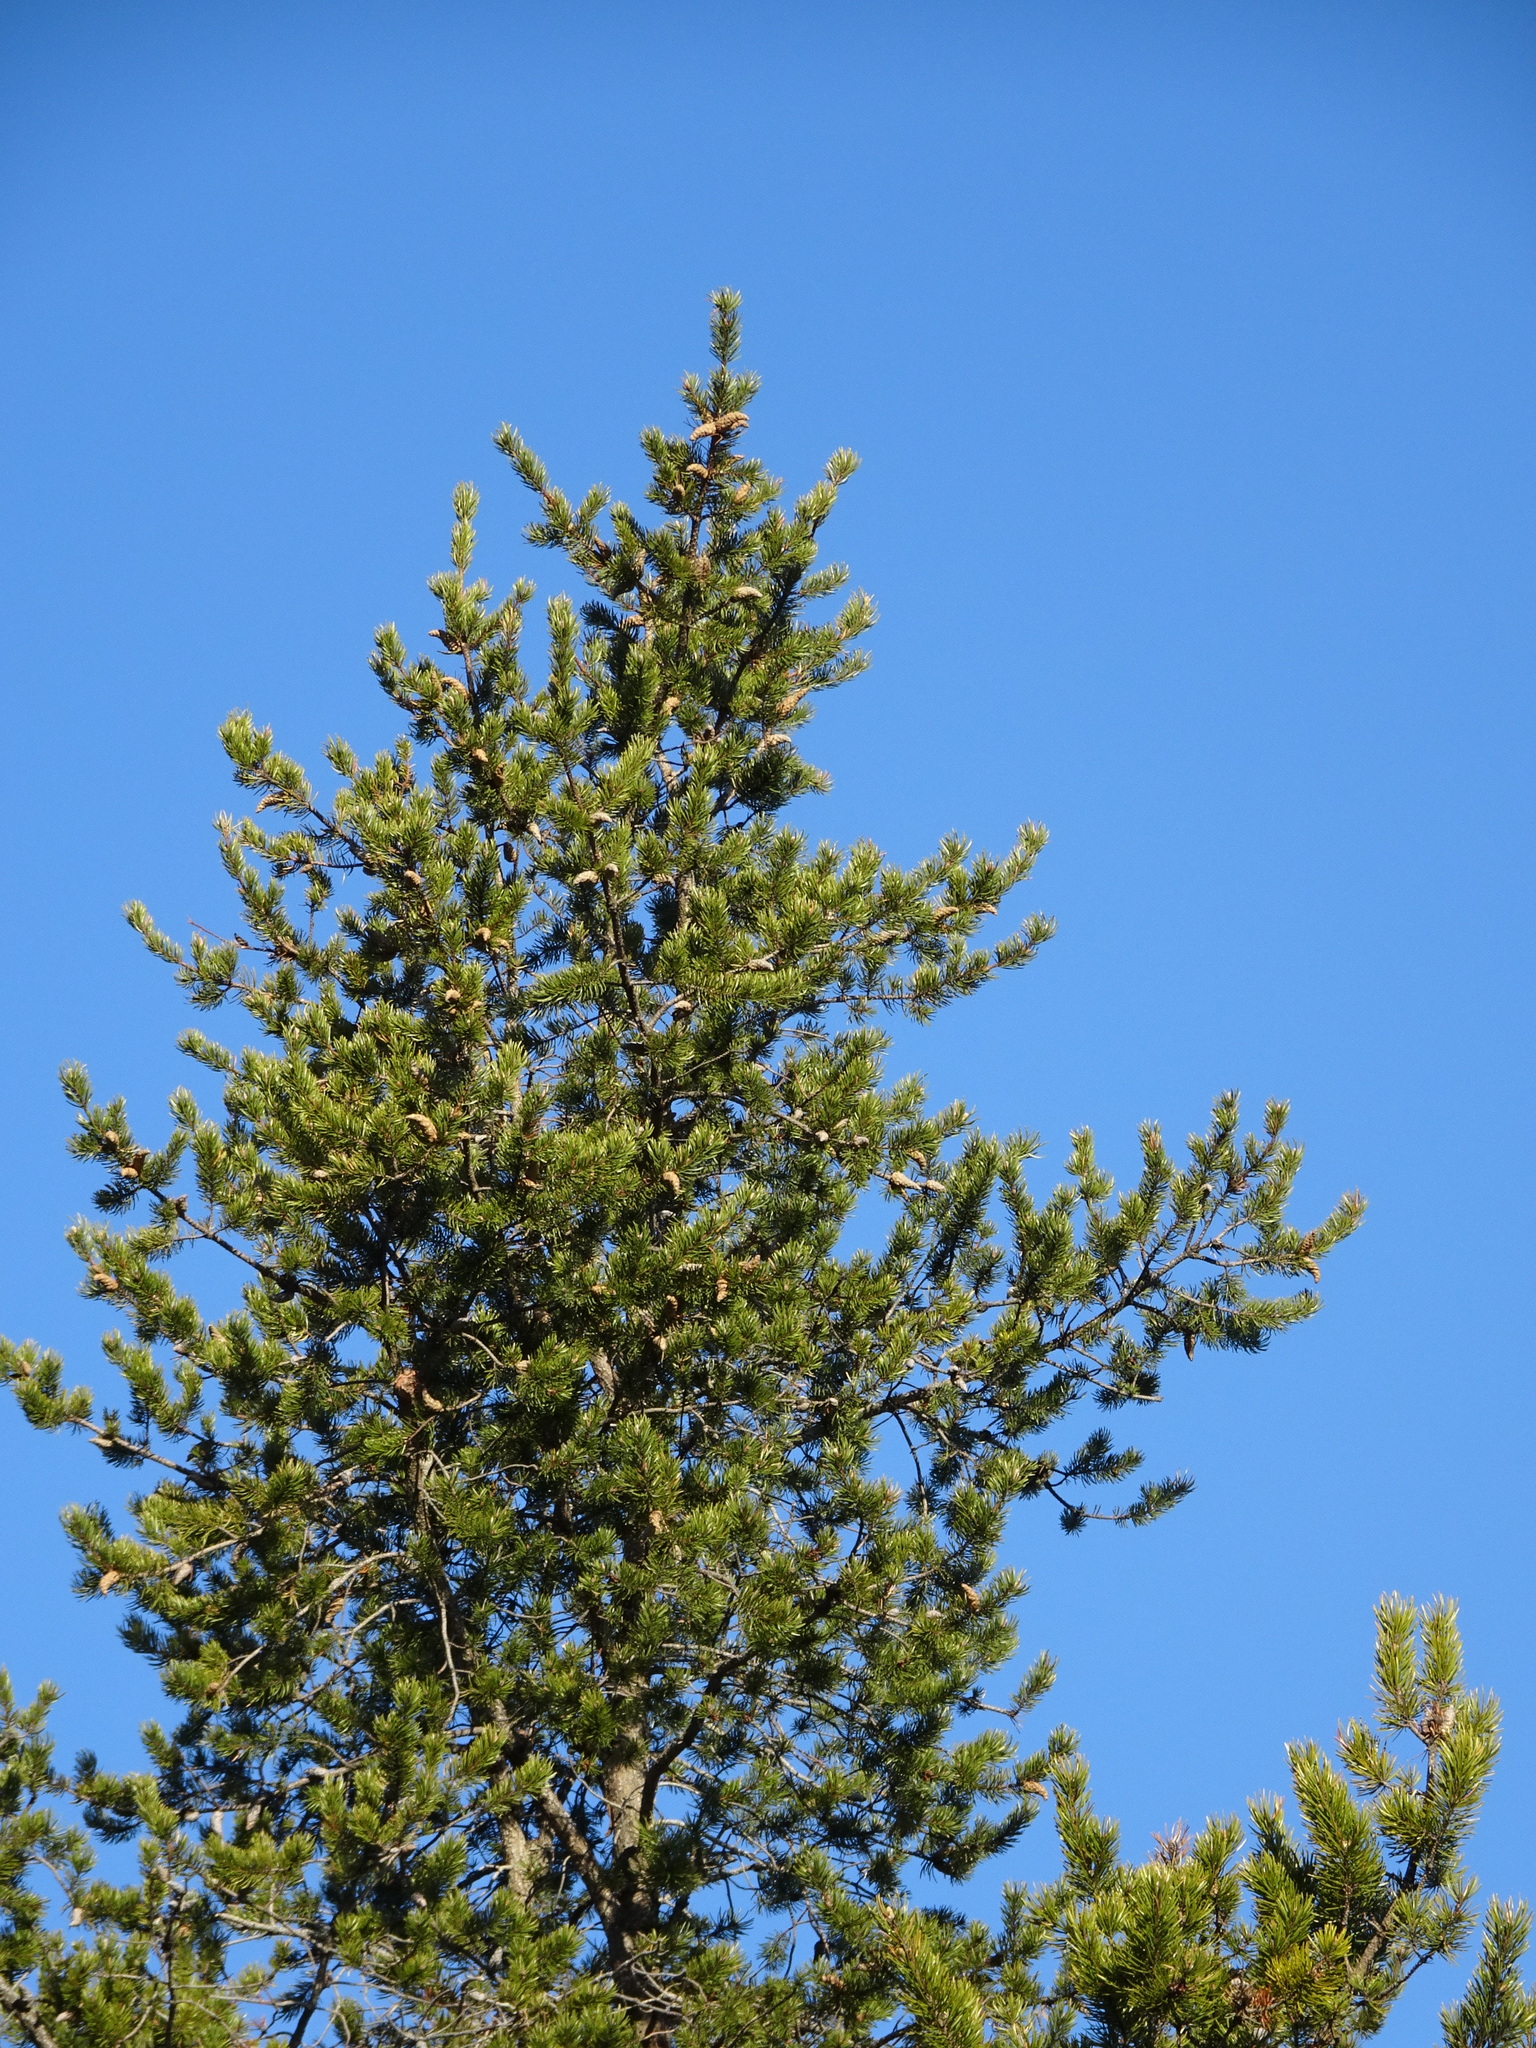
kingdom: Plantae
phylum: Tracheophyta
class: Pinopsida
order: Pinales
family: Pinaceae
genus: Pinus
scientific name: Pinus banksiana
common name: Jack pine
